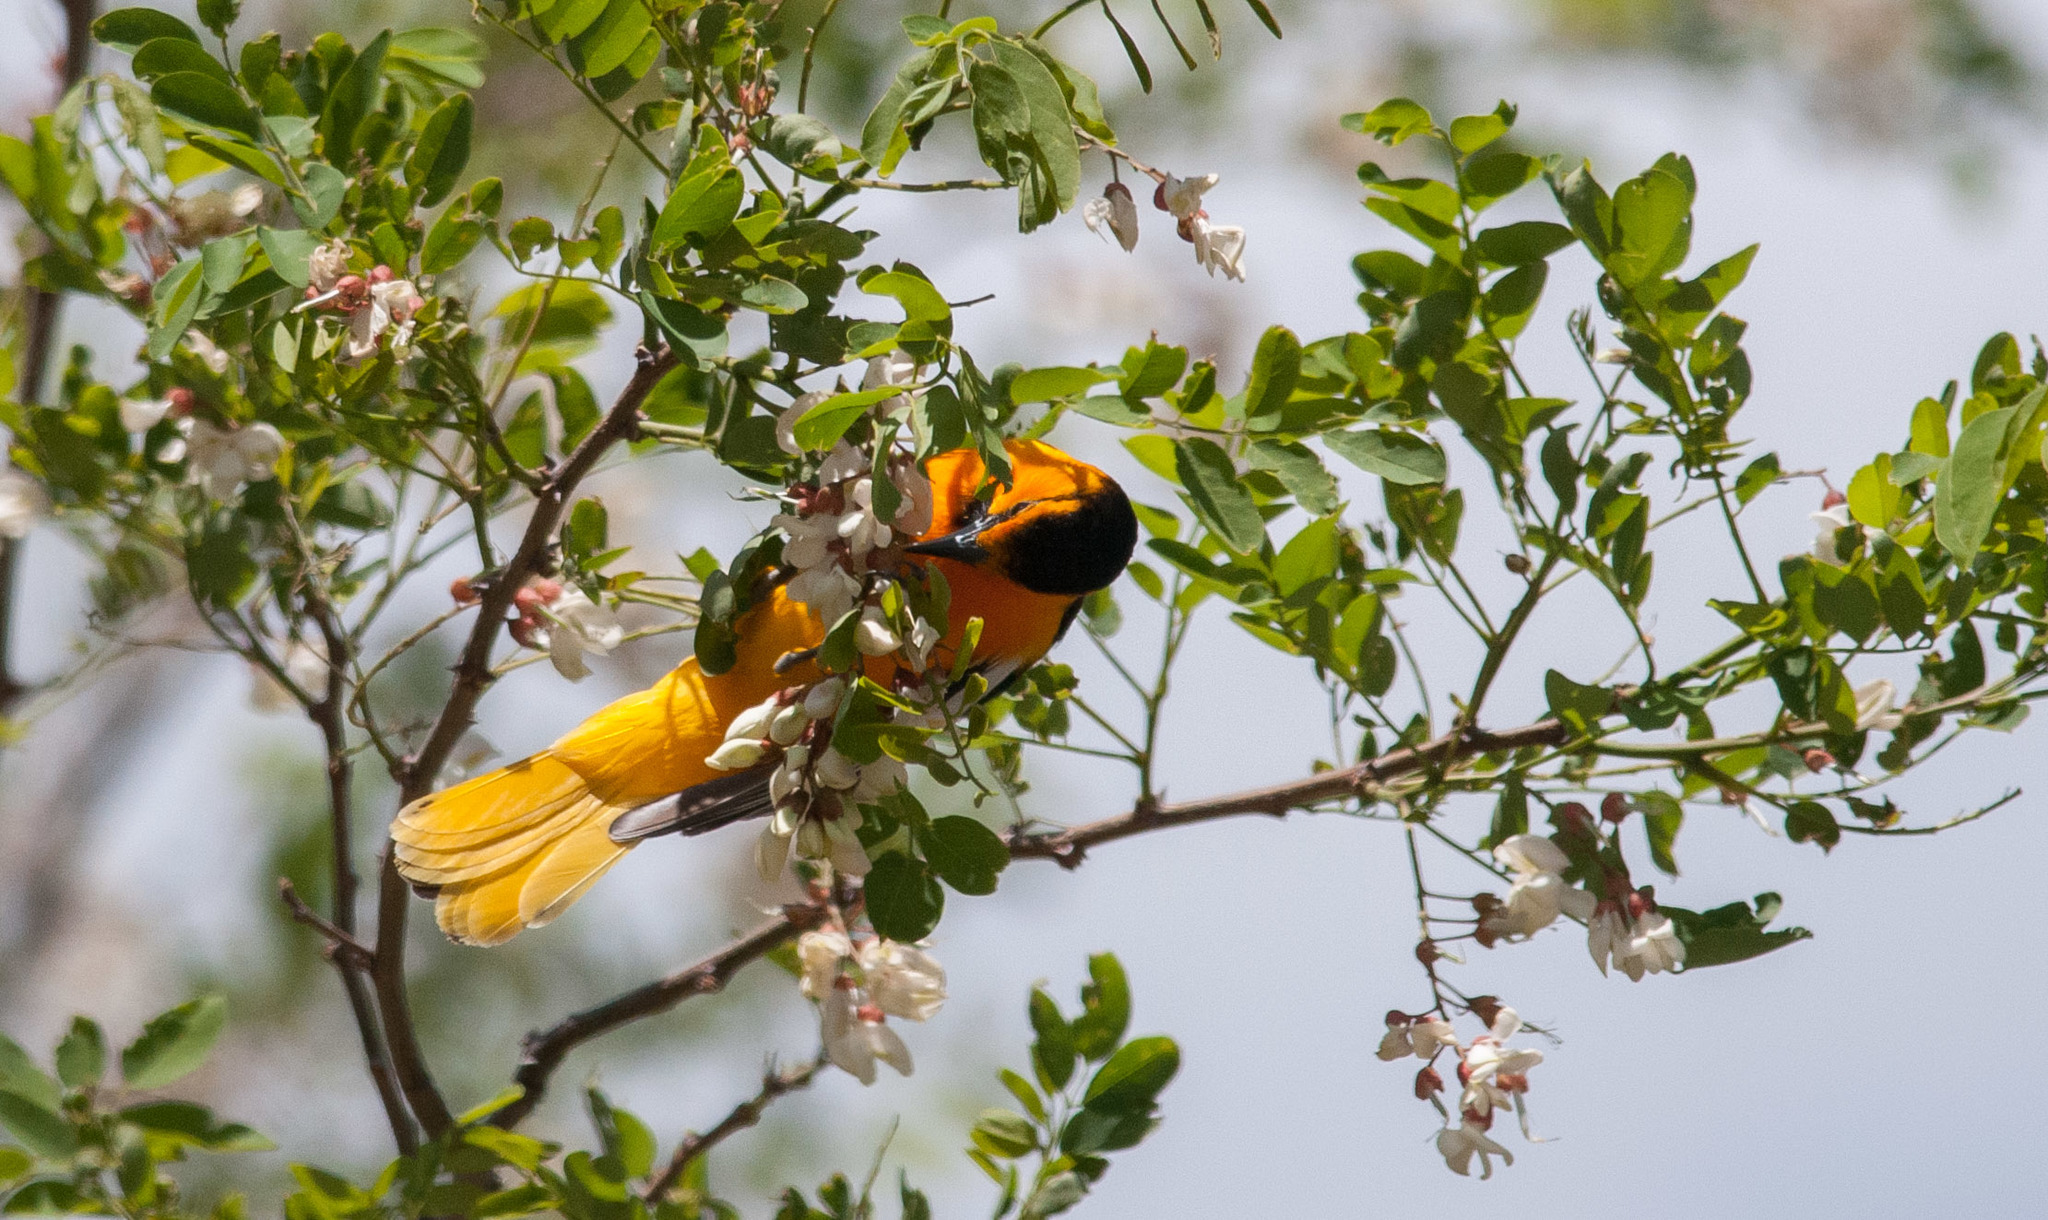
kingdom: Animalia
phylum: Chordata
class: Aves
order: Passeriformes
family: Icteridae
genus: Icterus
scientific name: Icterus bullockii
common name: Bullock's oriole
